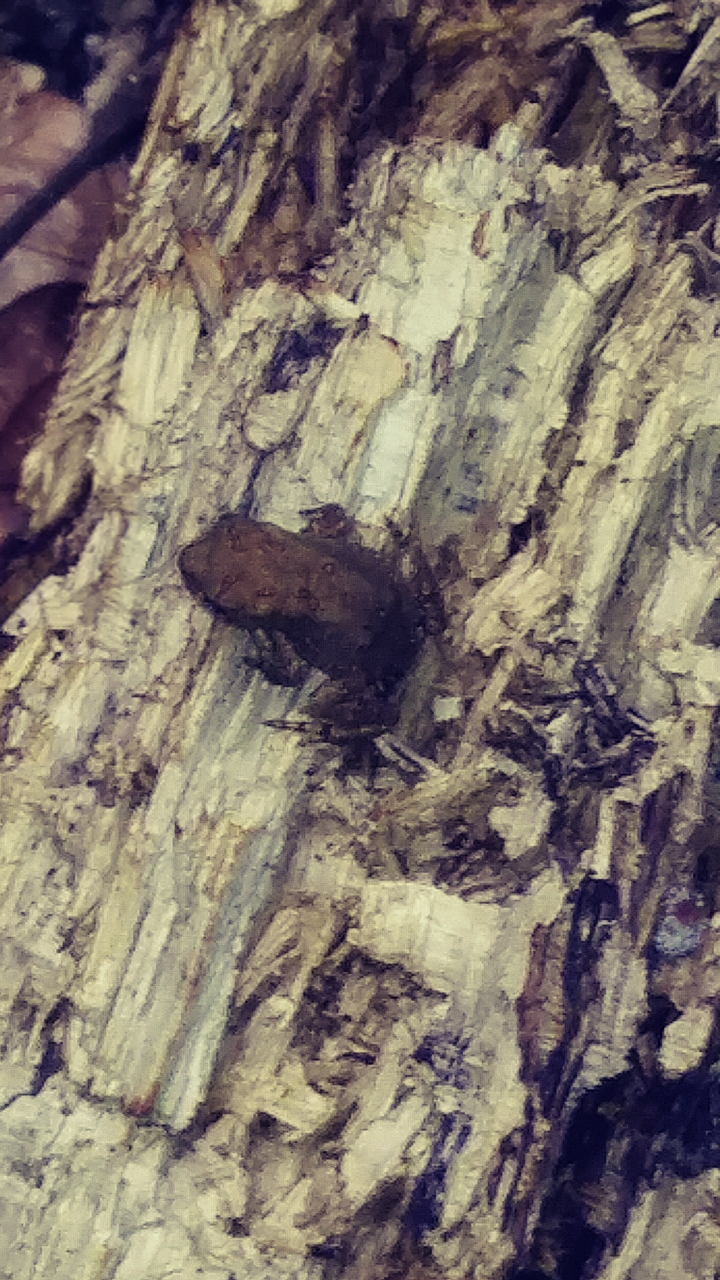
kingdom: Animalia
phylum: Chordata
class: Amphibia
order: Anura
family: Bufonidae
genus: Anaxyrus
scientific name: Anaxyrus americanus
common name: American toad
